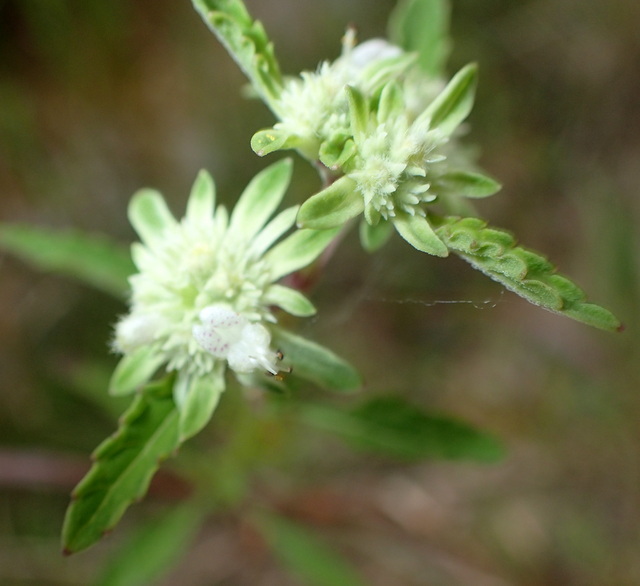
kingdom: Plantae
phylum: Tracheophyta
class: Magnoliopsida
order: Lamiales
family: Lamiaceae
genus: Hyptis
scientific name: Hyptis alata
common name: Cluster bush-mint
